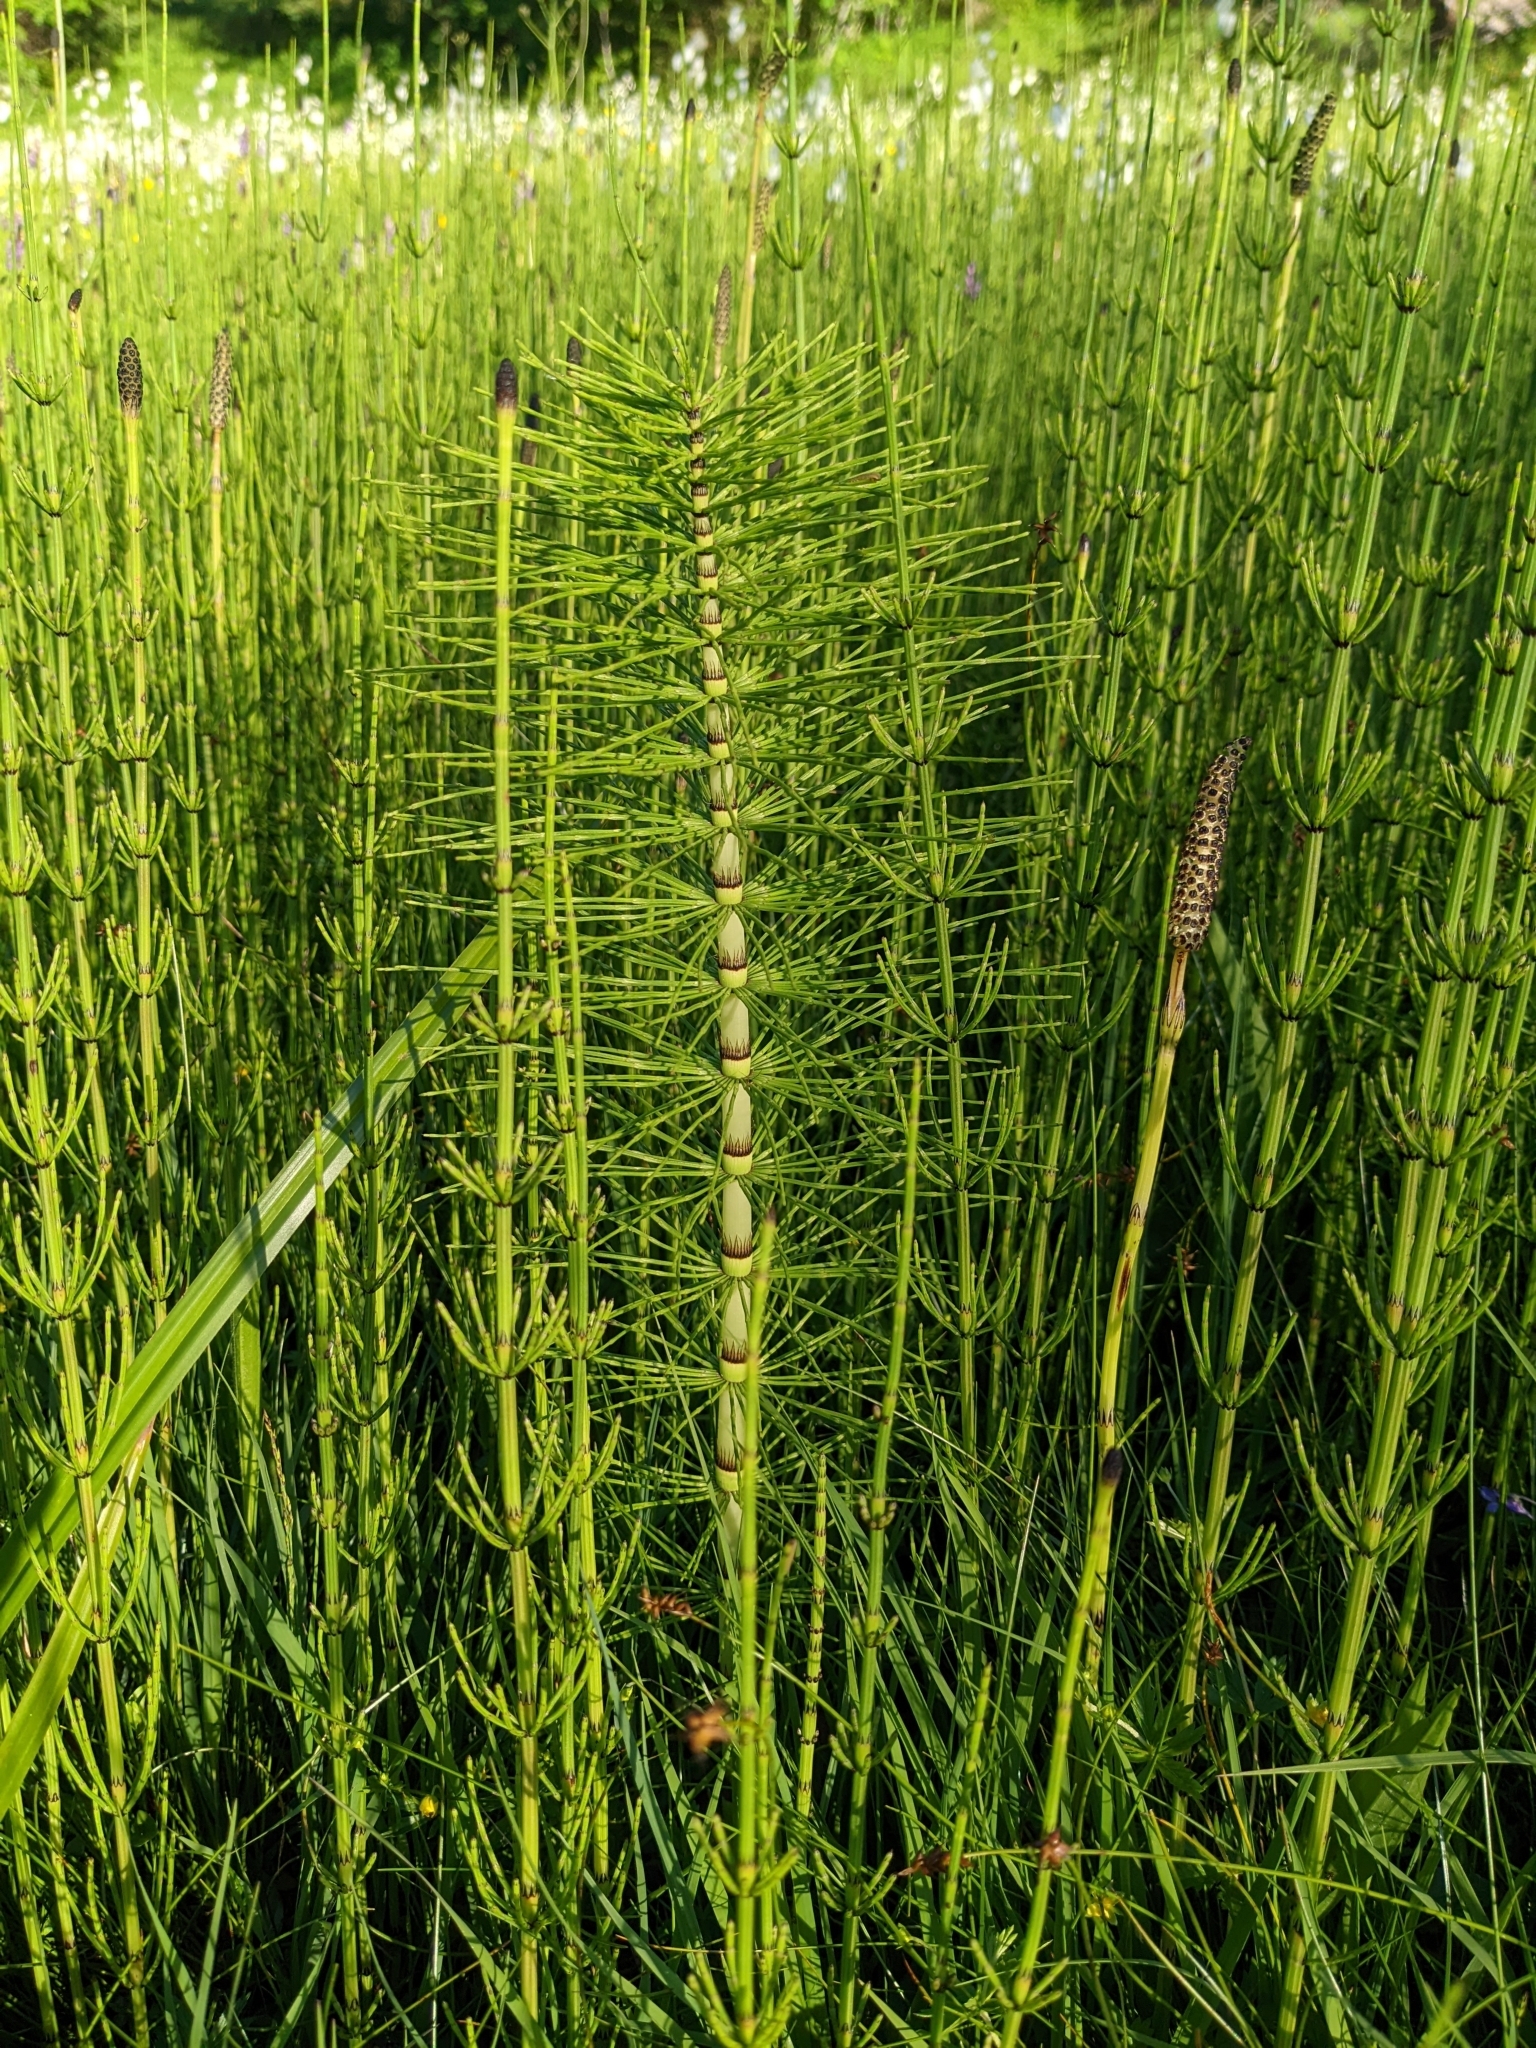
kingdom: Plantae
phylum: Tracheophyta
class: Polypodiopsida
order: Equisetales
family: Equisetaceae
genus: Equisetum
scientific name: Equisetum telmateia
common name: Great horsetail
